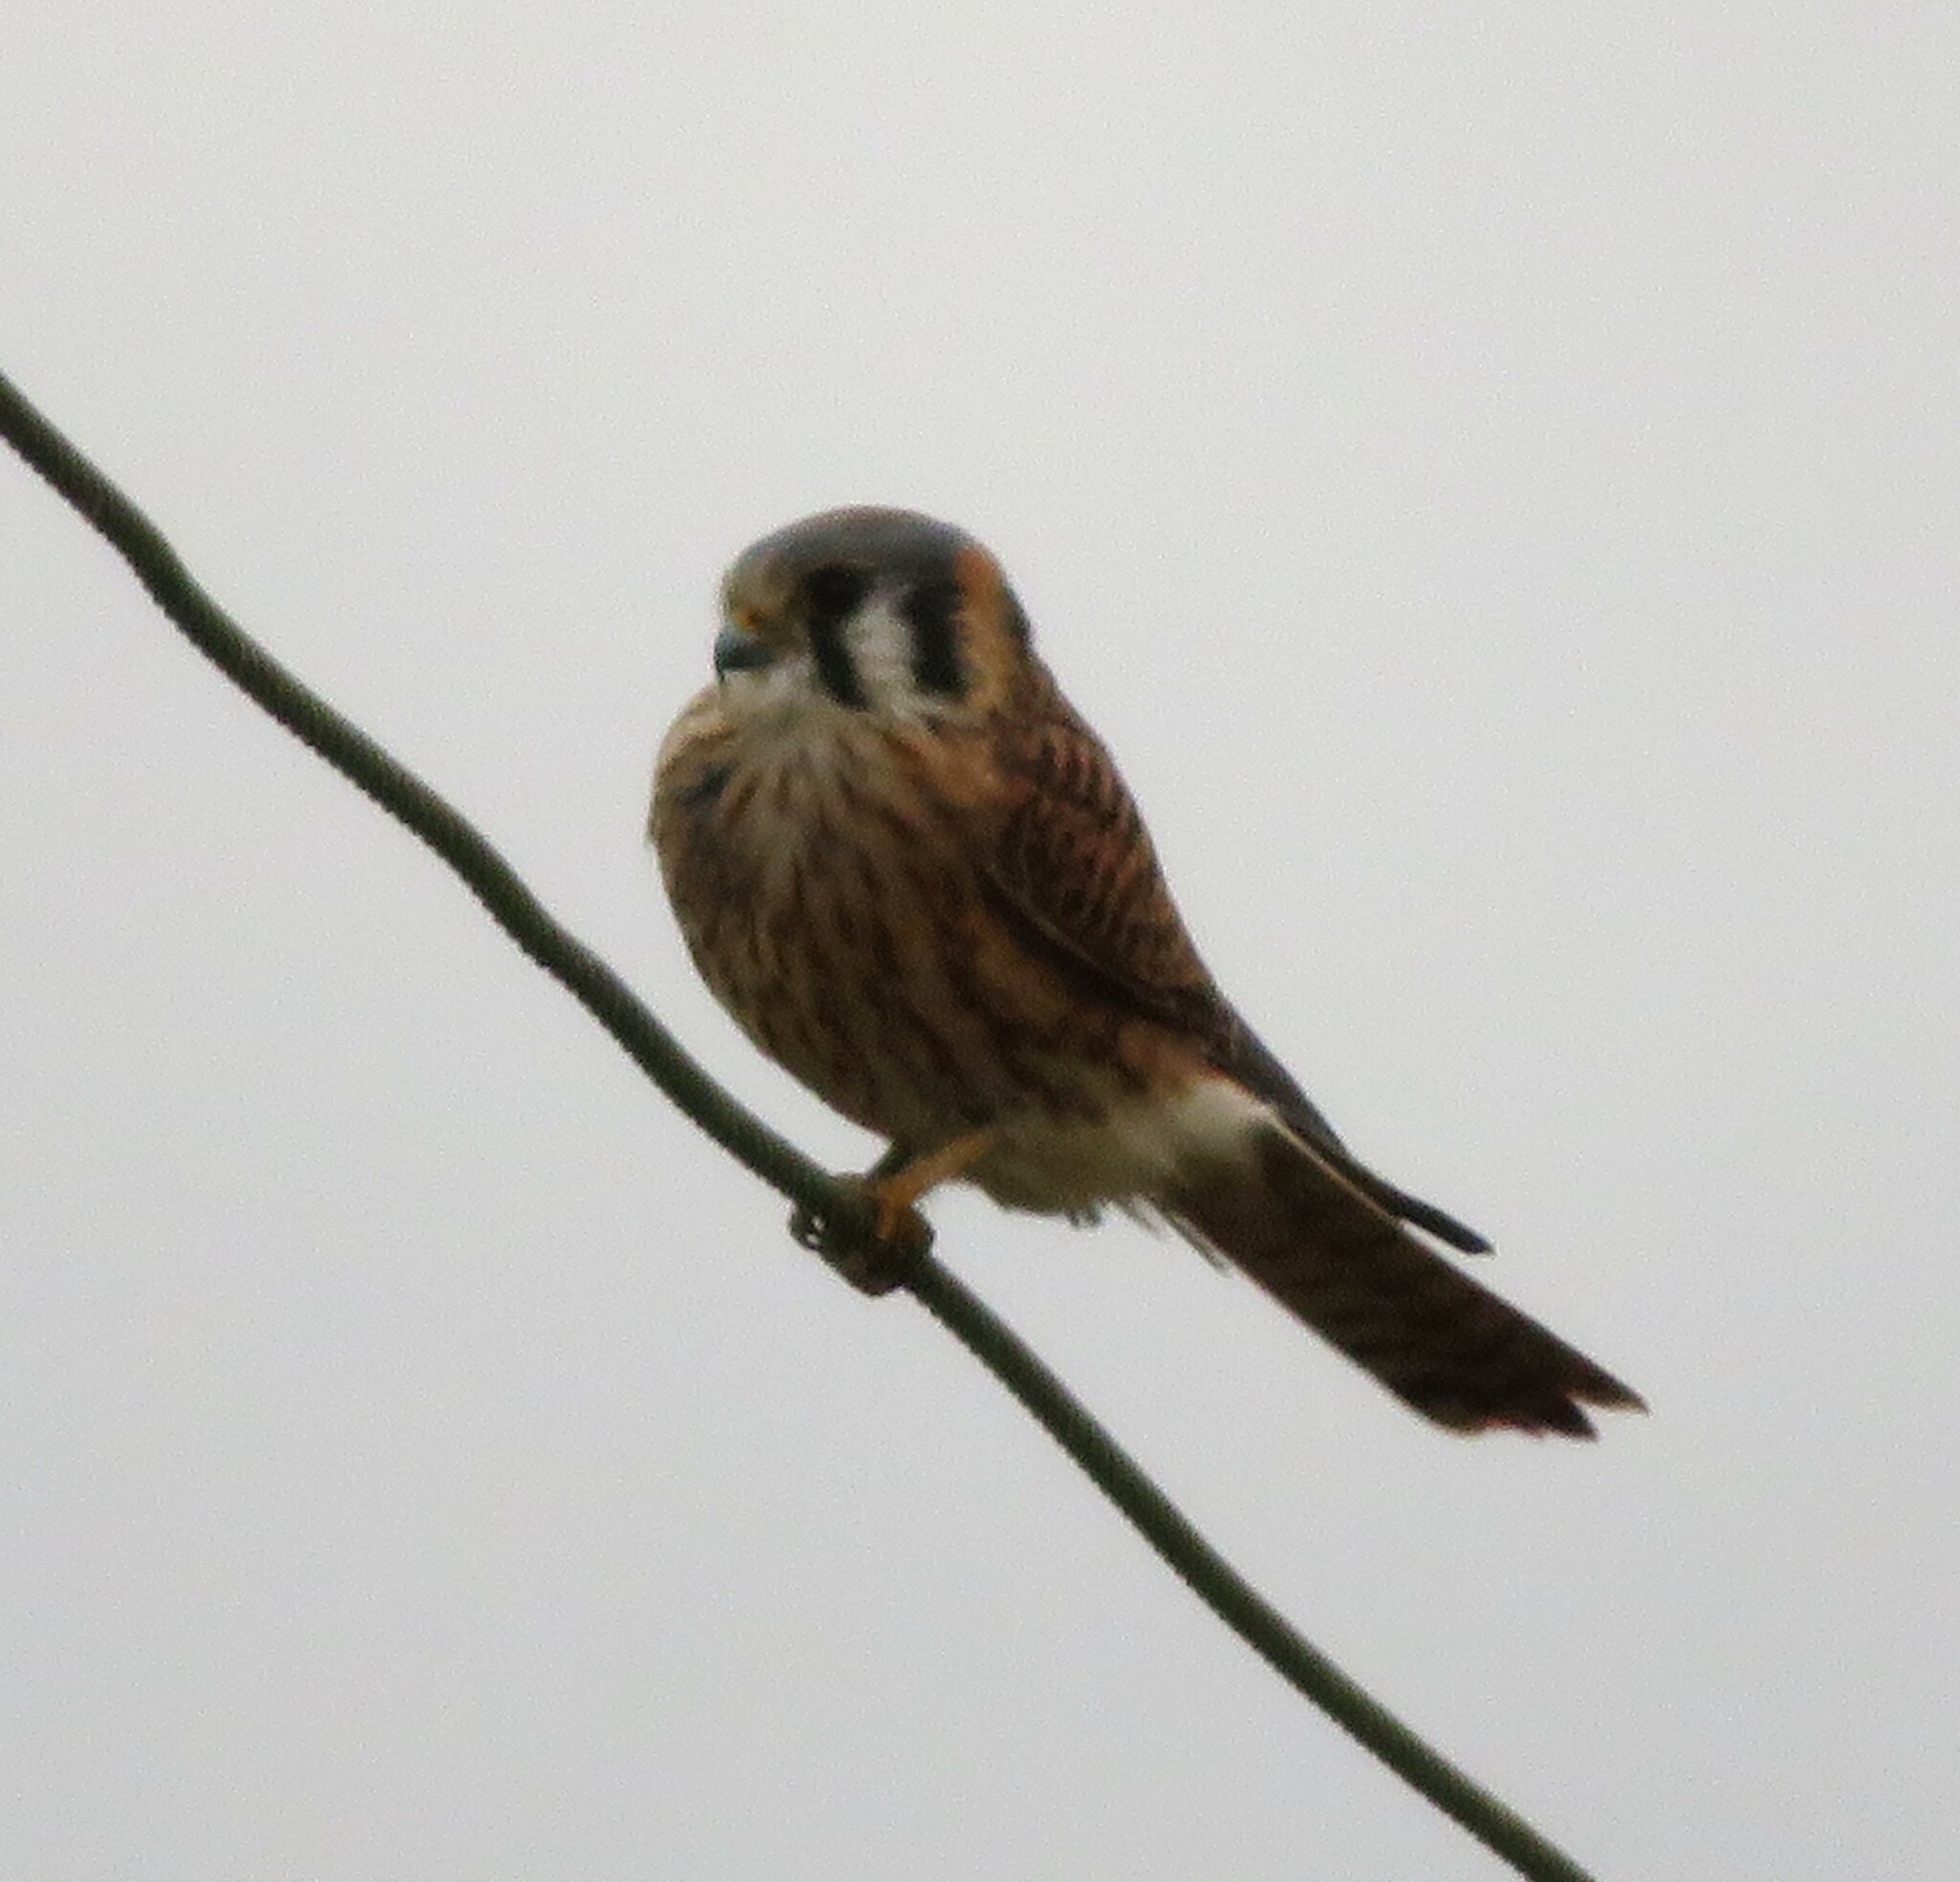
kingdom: Animalia
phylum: Chordata
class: Aves
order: Falconiformes
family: Falconidae
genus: Falco
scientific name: Falco sparverius
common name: American kestrel
